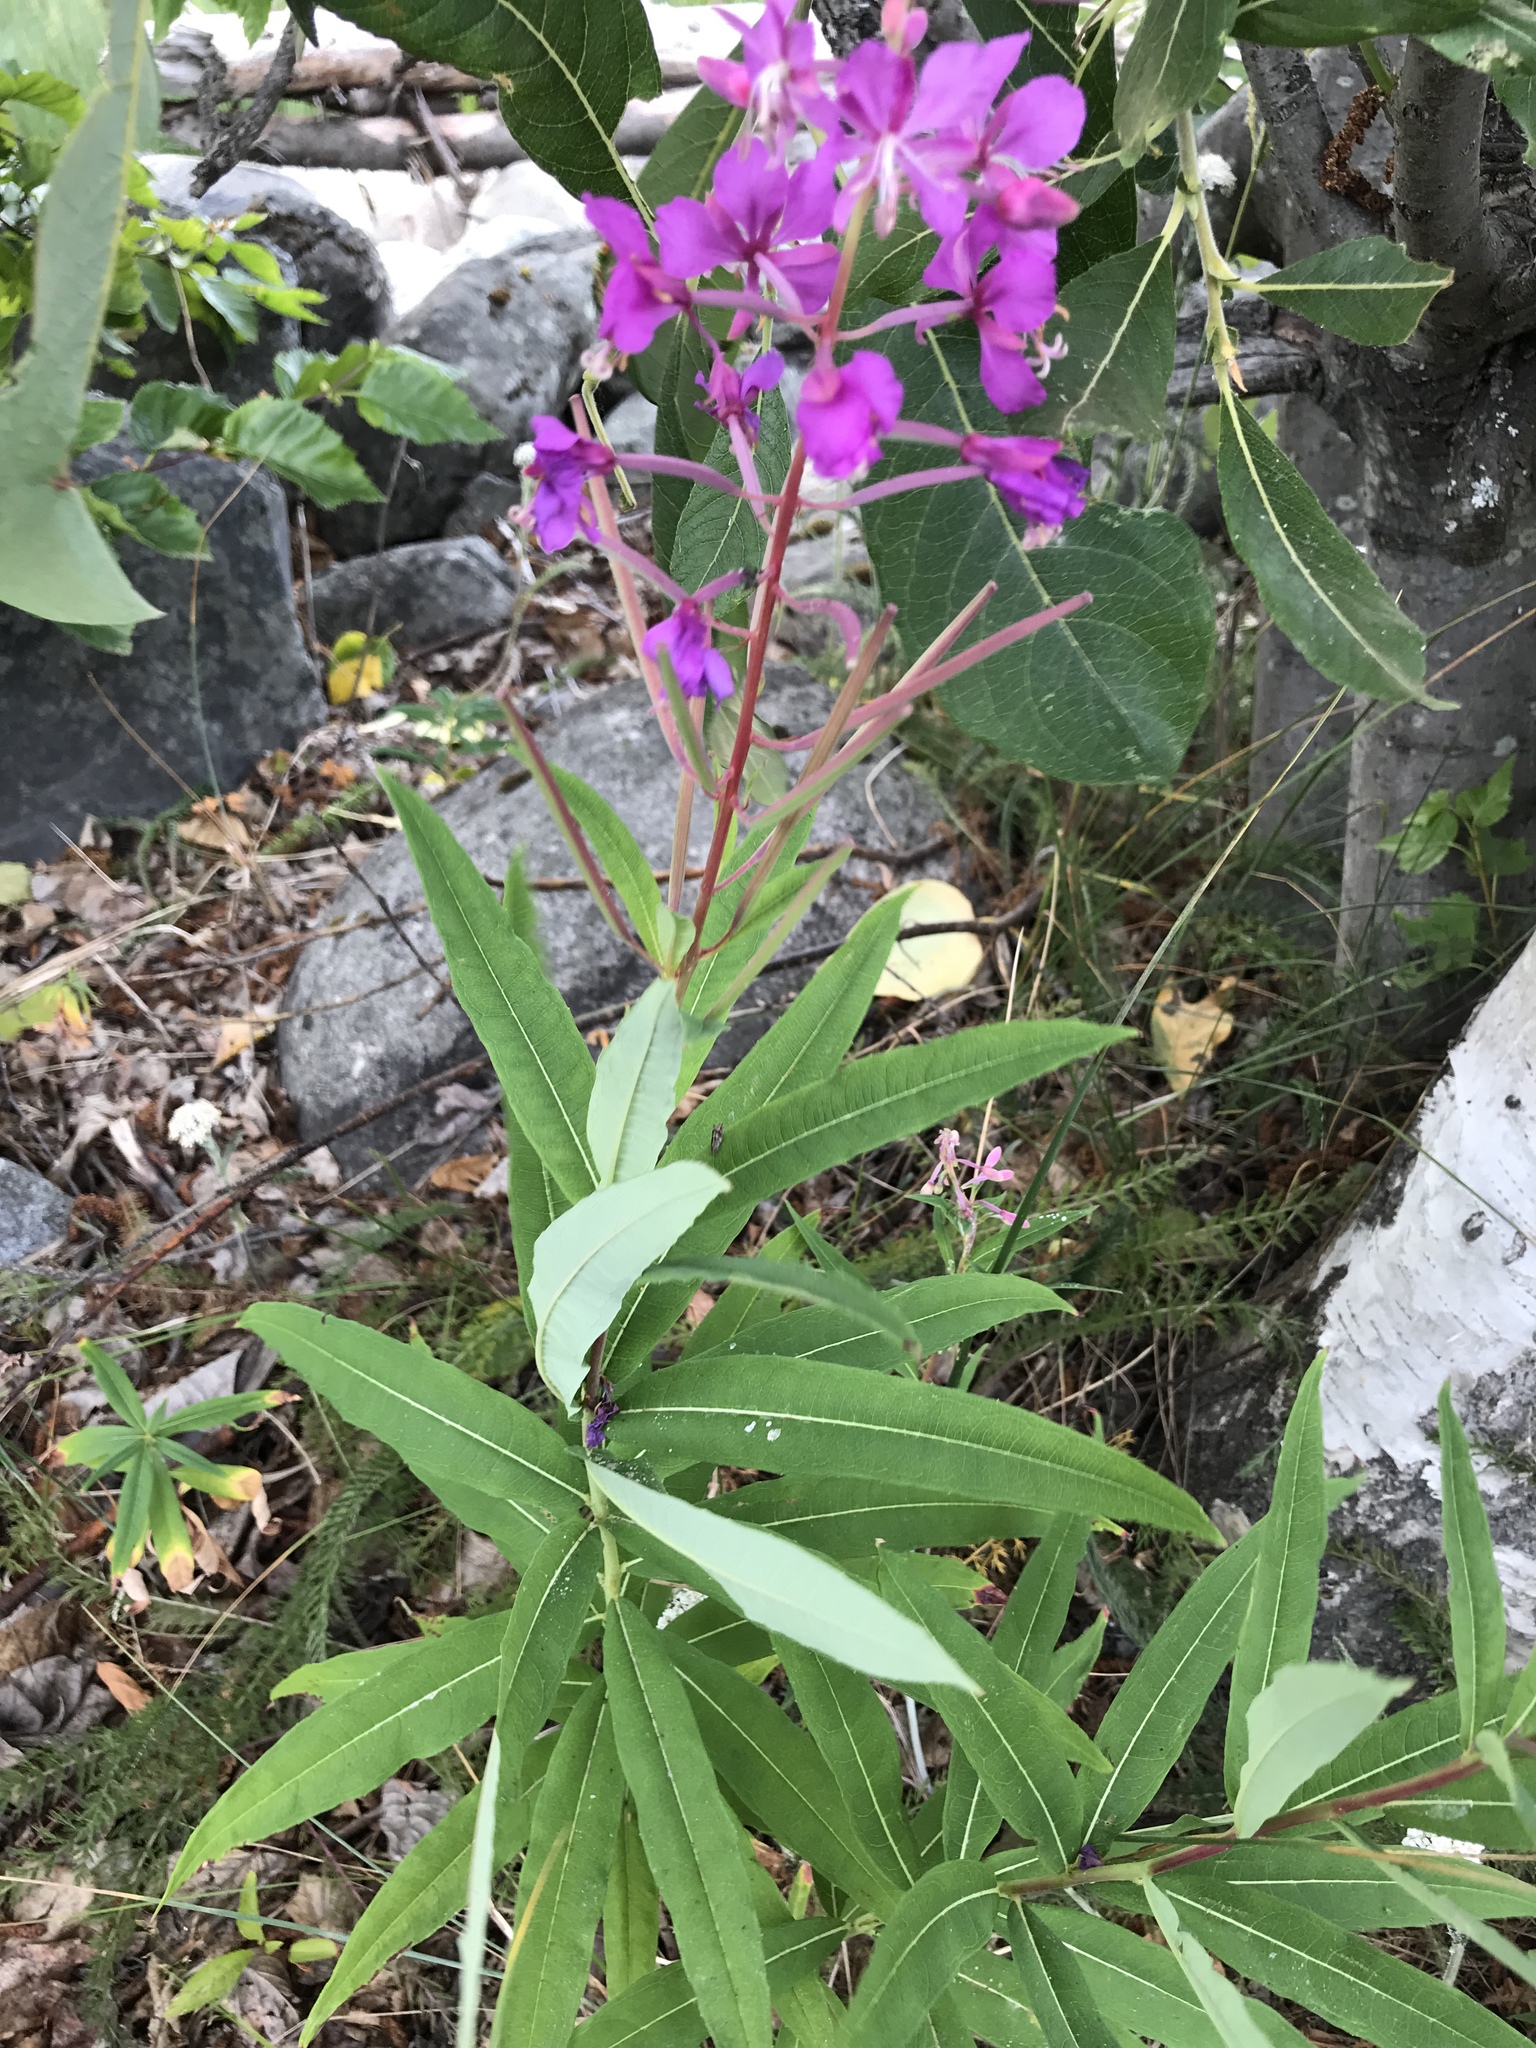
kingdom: Plantae
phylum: Tracheophyta
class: Magnoliopsida
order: Myrtales
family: Onagraceae
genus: Chamaenerion
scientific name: Chamaenerion angustifolium
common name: Fireweed
